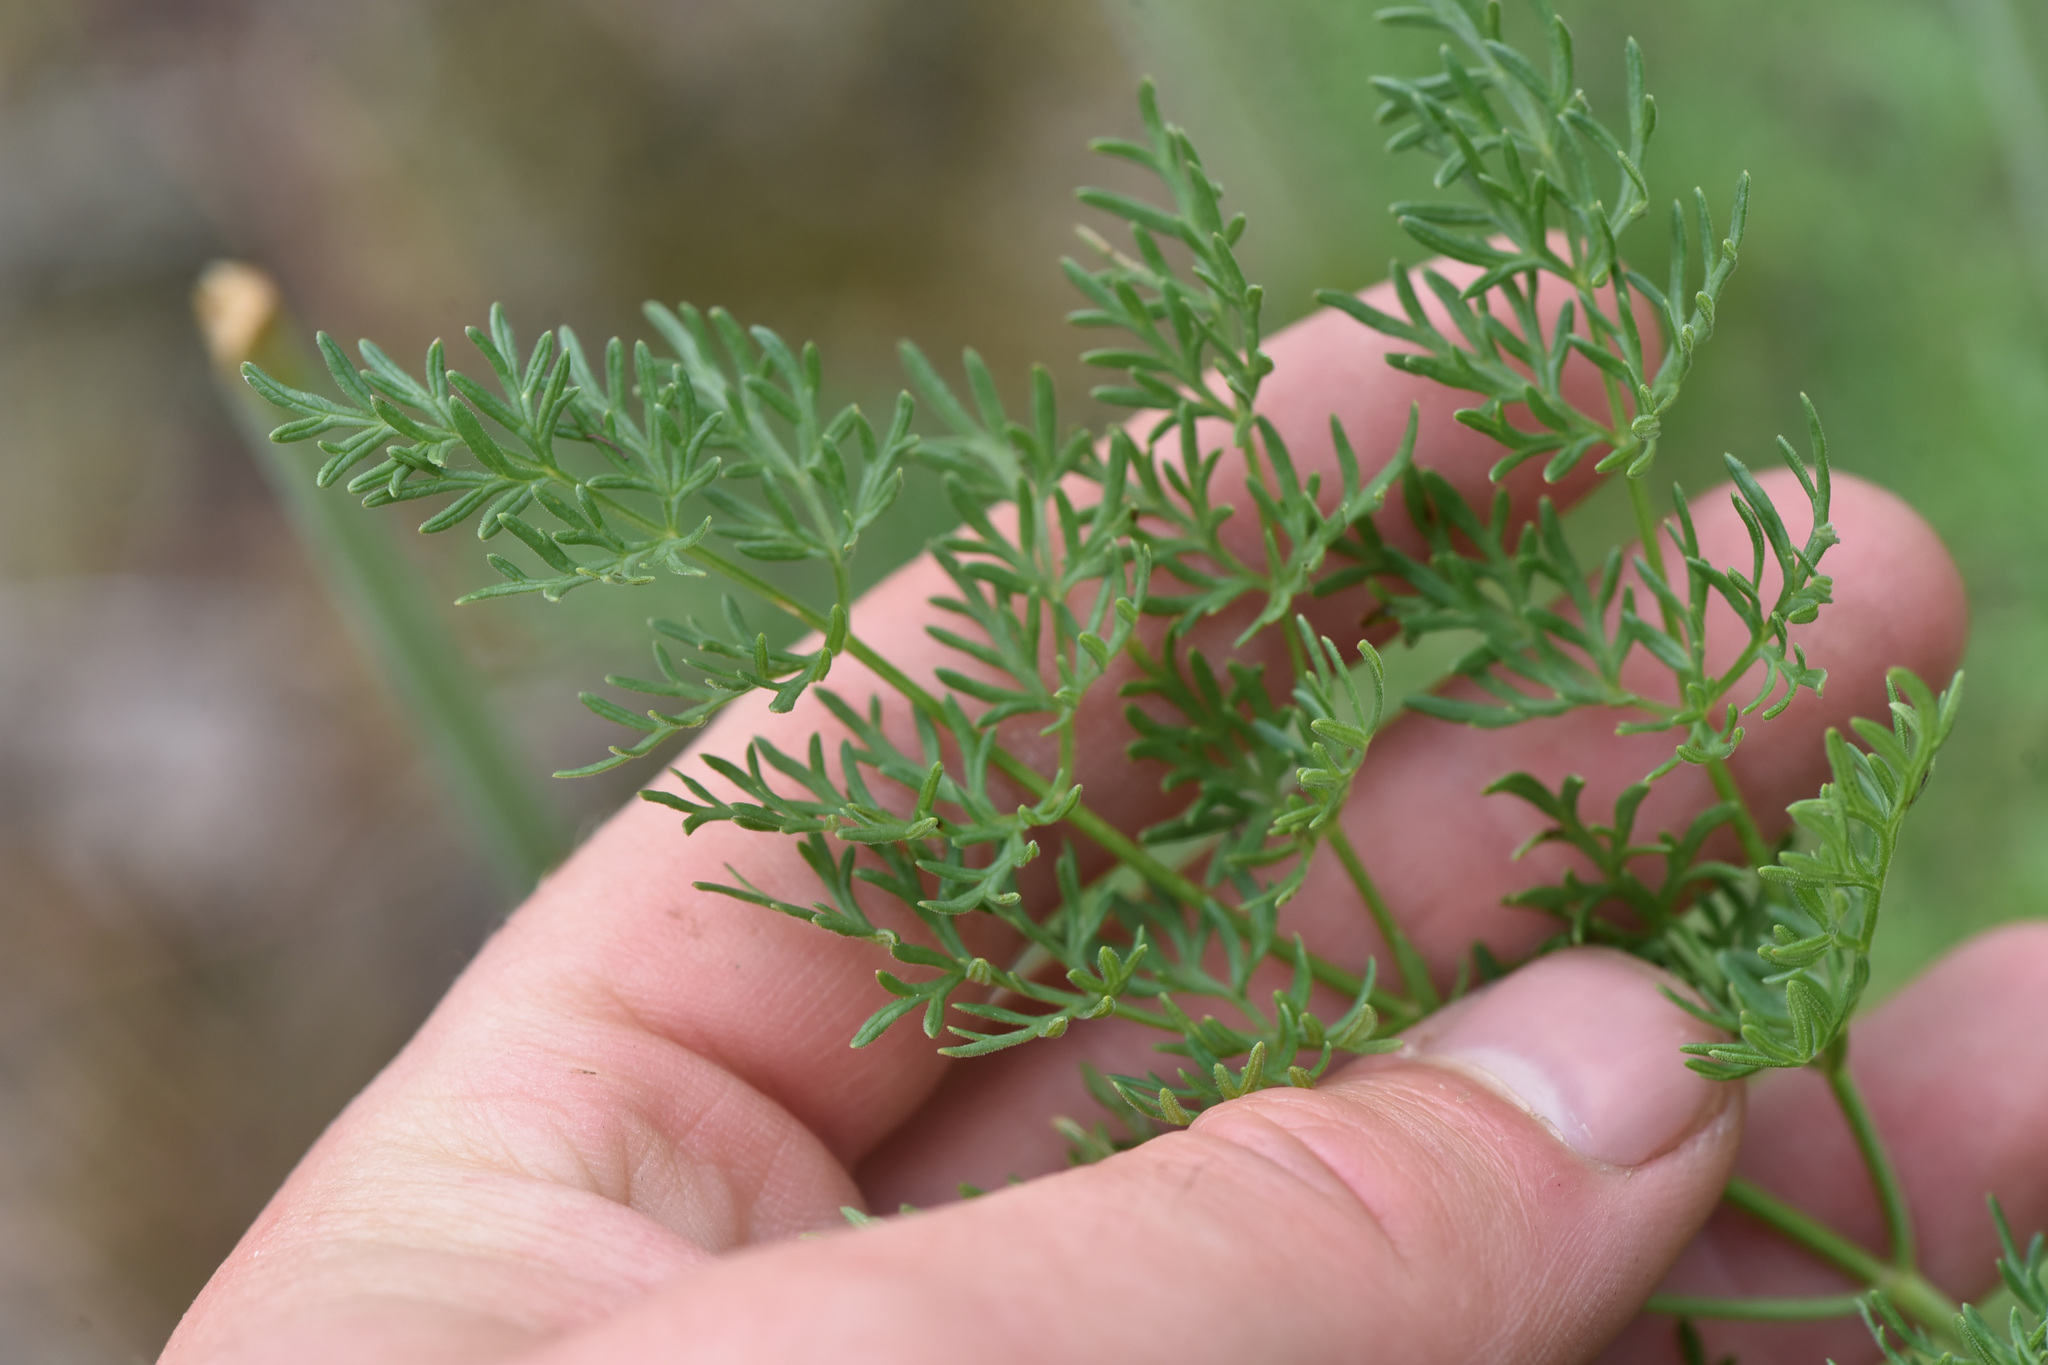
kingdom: Plantae
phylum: Tracheophyta
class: Magnoliopsida
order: Apiales
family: Apiaceae
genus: Lomatium
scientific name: Lomatium multifidum
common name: Carrot-leaved biscuitroot
